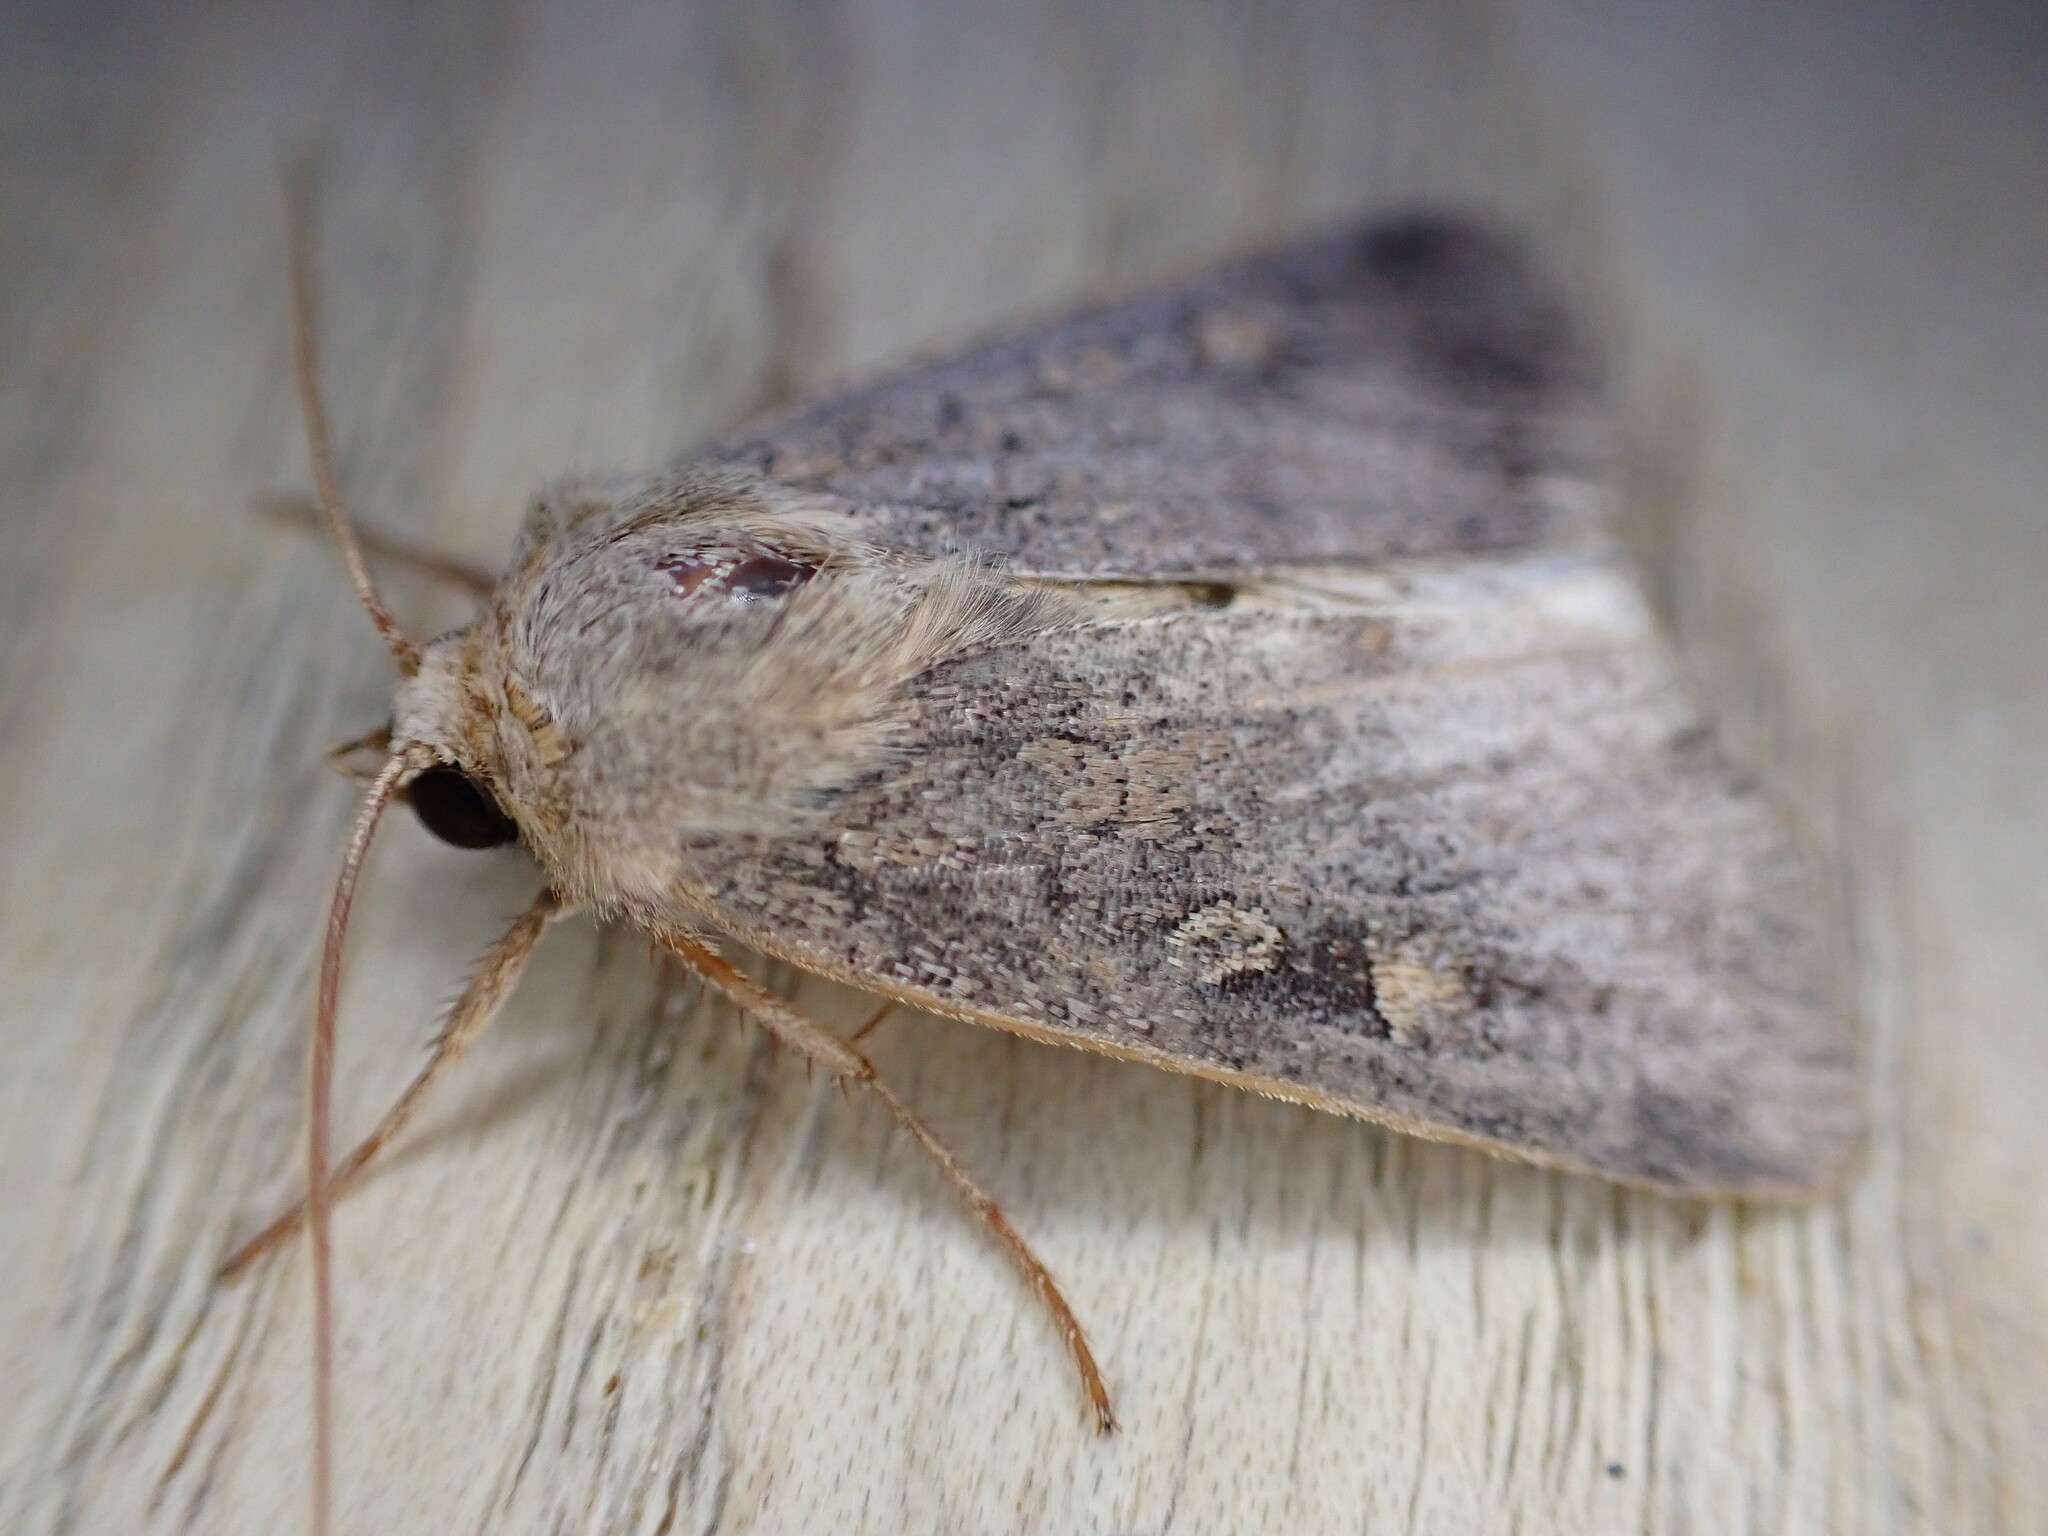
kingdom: Animalia
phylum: Arthropoda
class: Insecta
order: Lepidoptera
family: Noctuidae
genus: Xestia
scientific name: Xestia xanthographa
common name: Square-spot rustic
